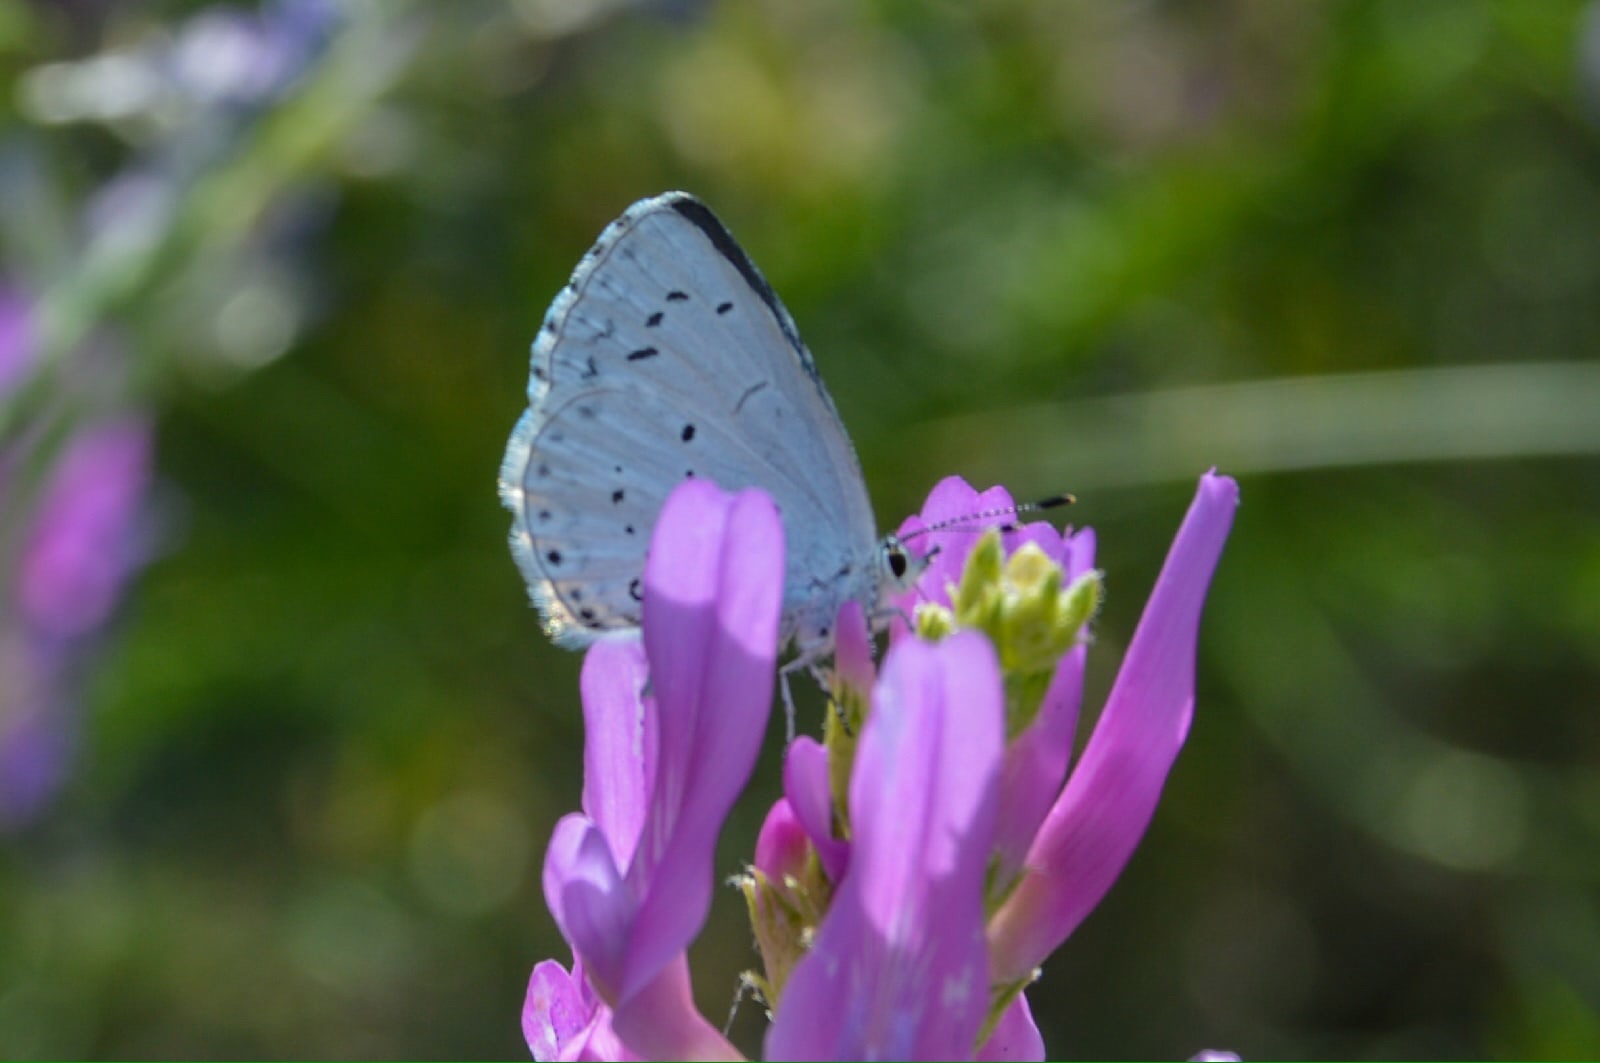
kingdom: Animalia
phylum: Arthropoda
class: Insecta
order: Lepidoptera
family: Lycaenidae
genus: Celastrina
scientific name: Celastrina argiolus
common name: Holly blue
